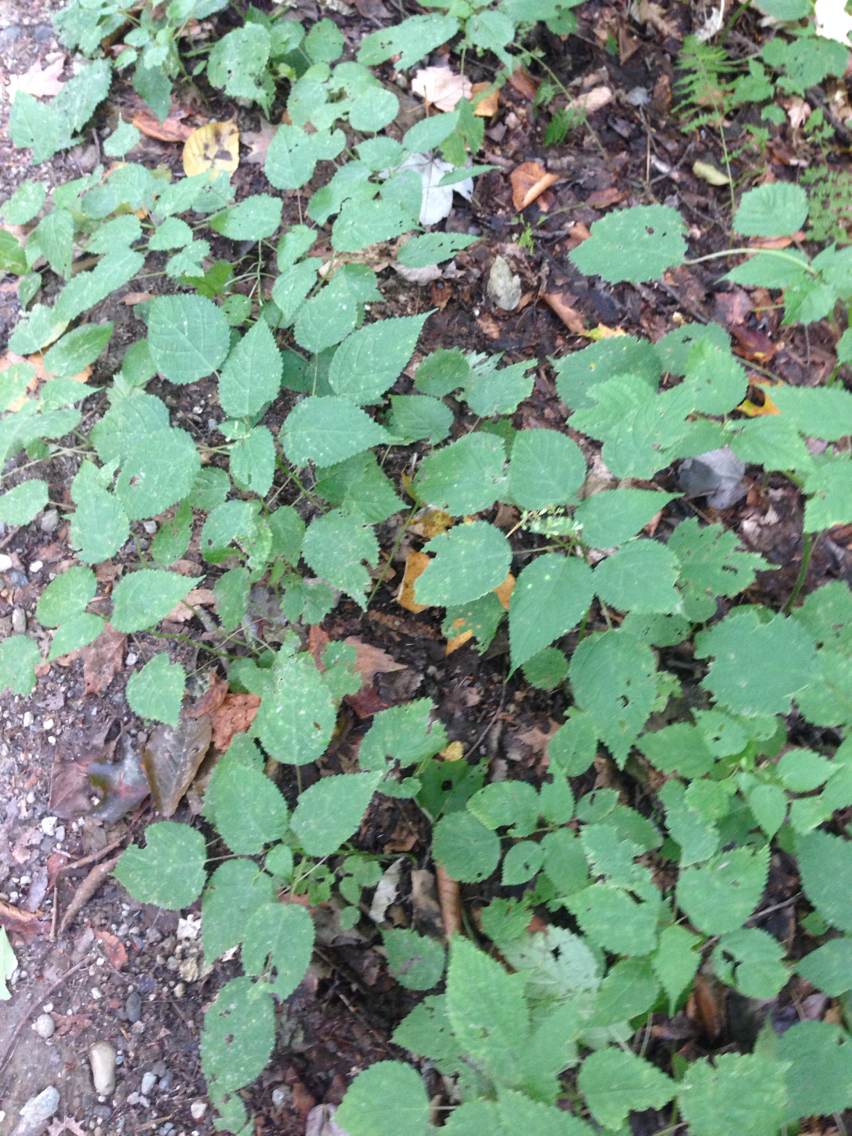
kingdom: Plantae
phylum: Tracheophyta
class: Magnoliopsida
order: Rosales
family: Urticaceae
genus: Laportea
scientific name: Laportea canadensis
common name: Canada nettle
